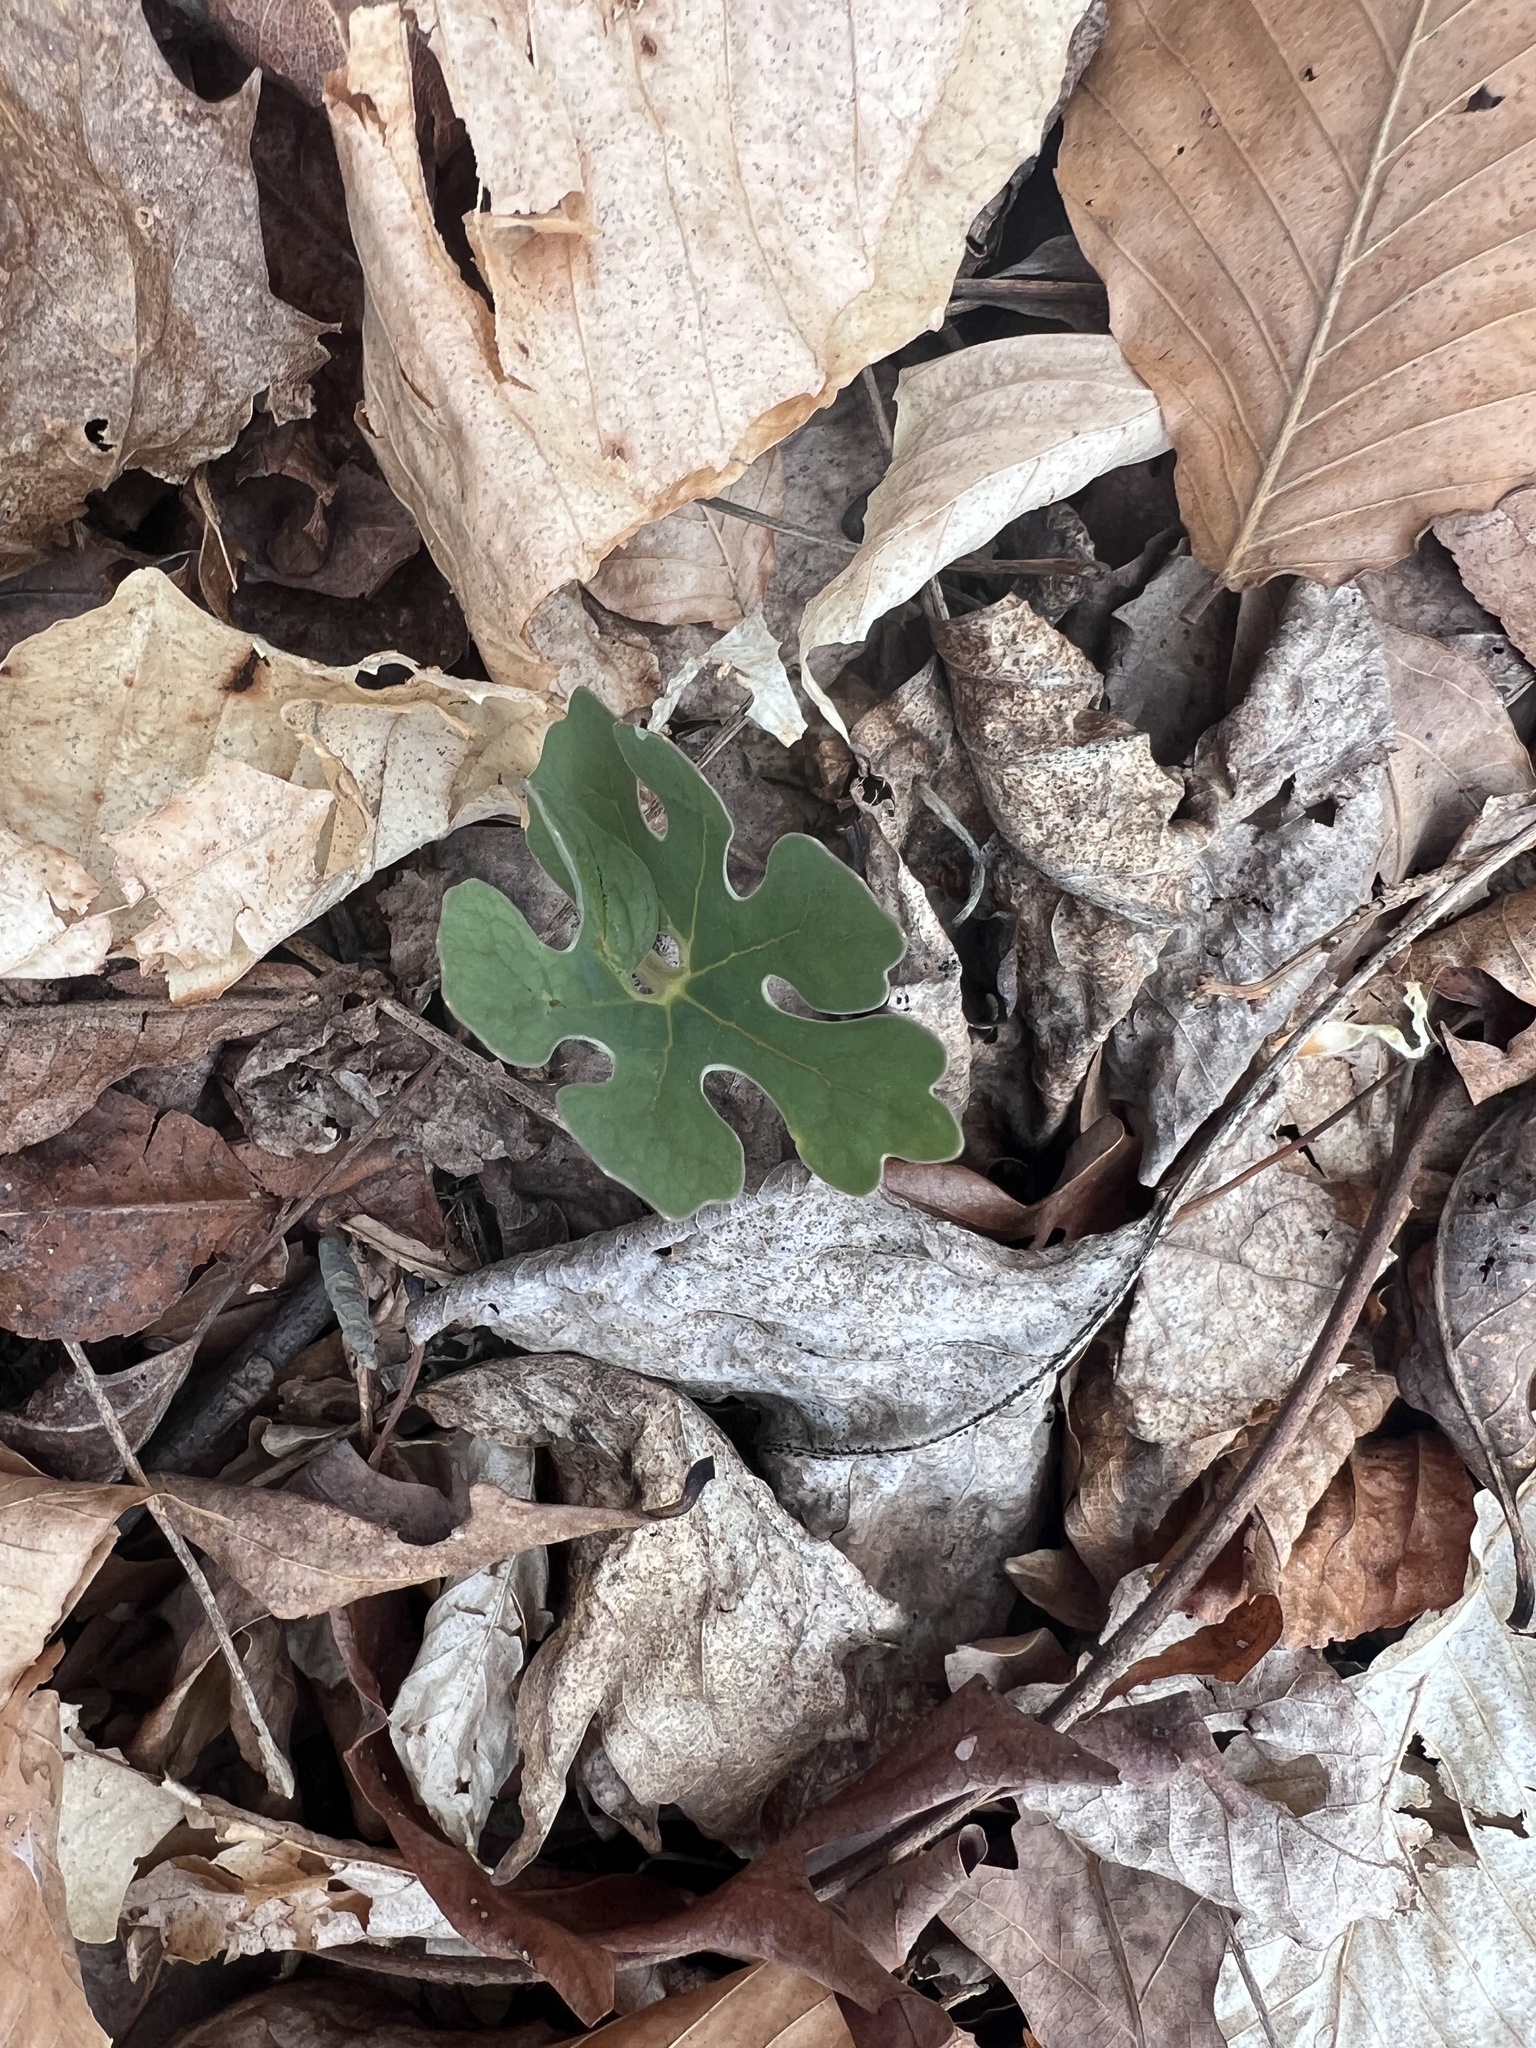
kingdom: Plantae
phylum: Tracheophyta
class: Magnoliopsida
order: Ranunculales
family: Papaveraceae
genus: Sanguinaria
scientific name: Sanguinaria canadensis
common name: Bloodroot
